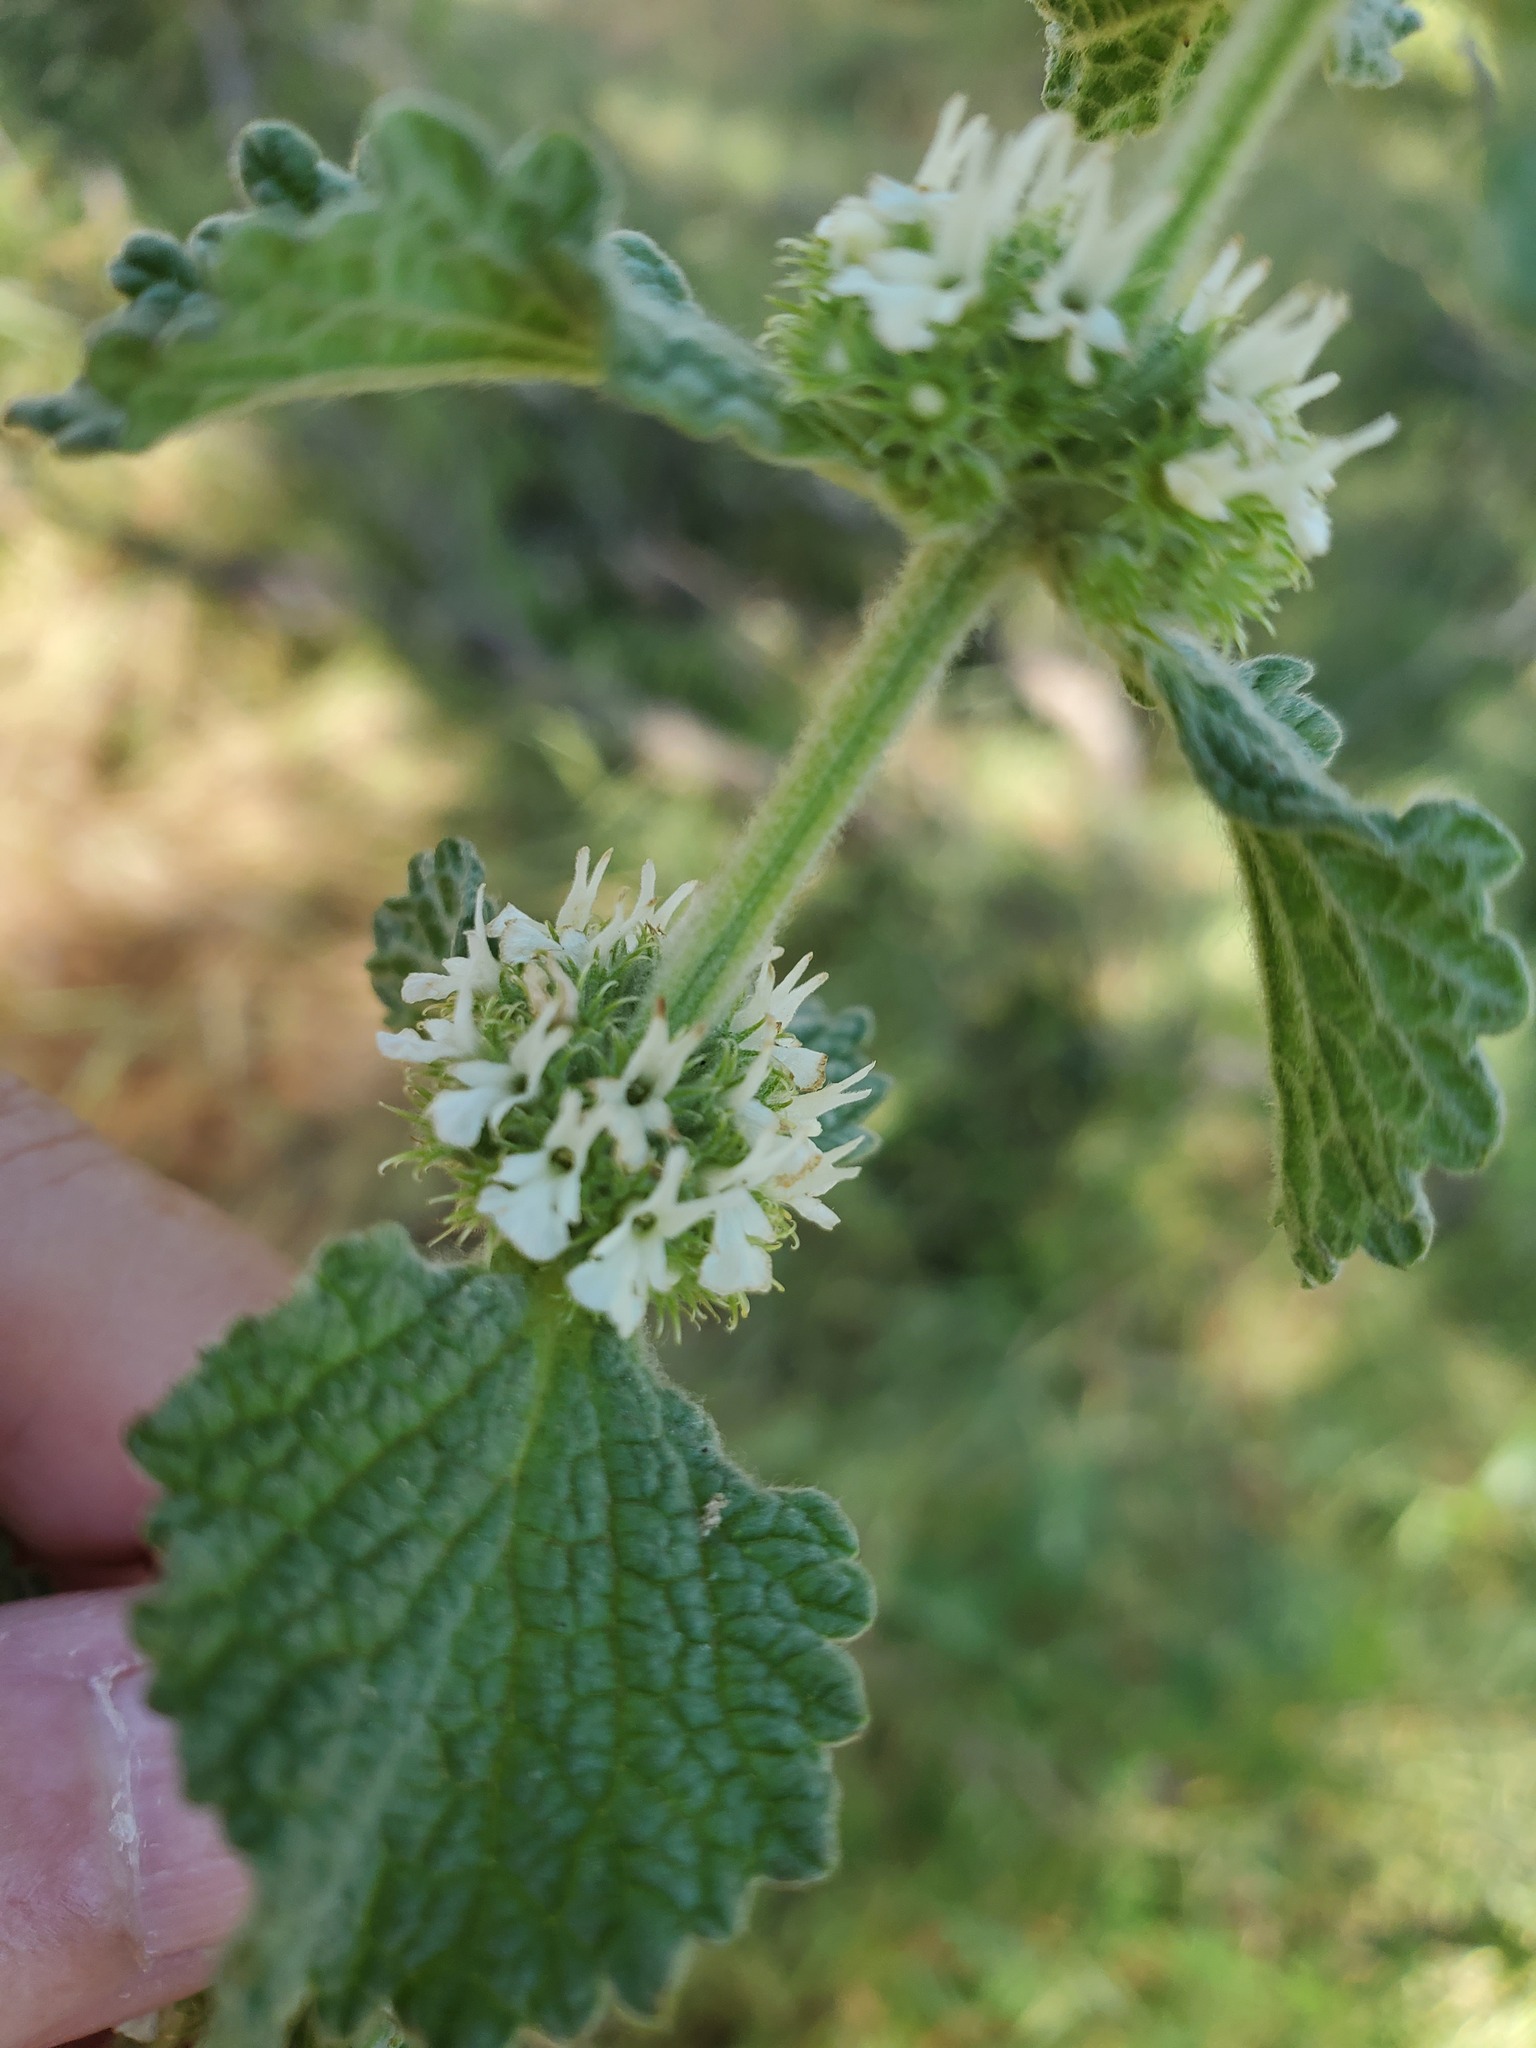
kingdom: Plantae
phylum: Tracheophyta
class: Magnoliopsida
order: Lamiales
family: Lamiaceae
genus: Marrubium
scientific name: Marrubium vulgare
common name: Horehound
